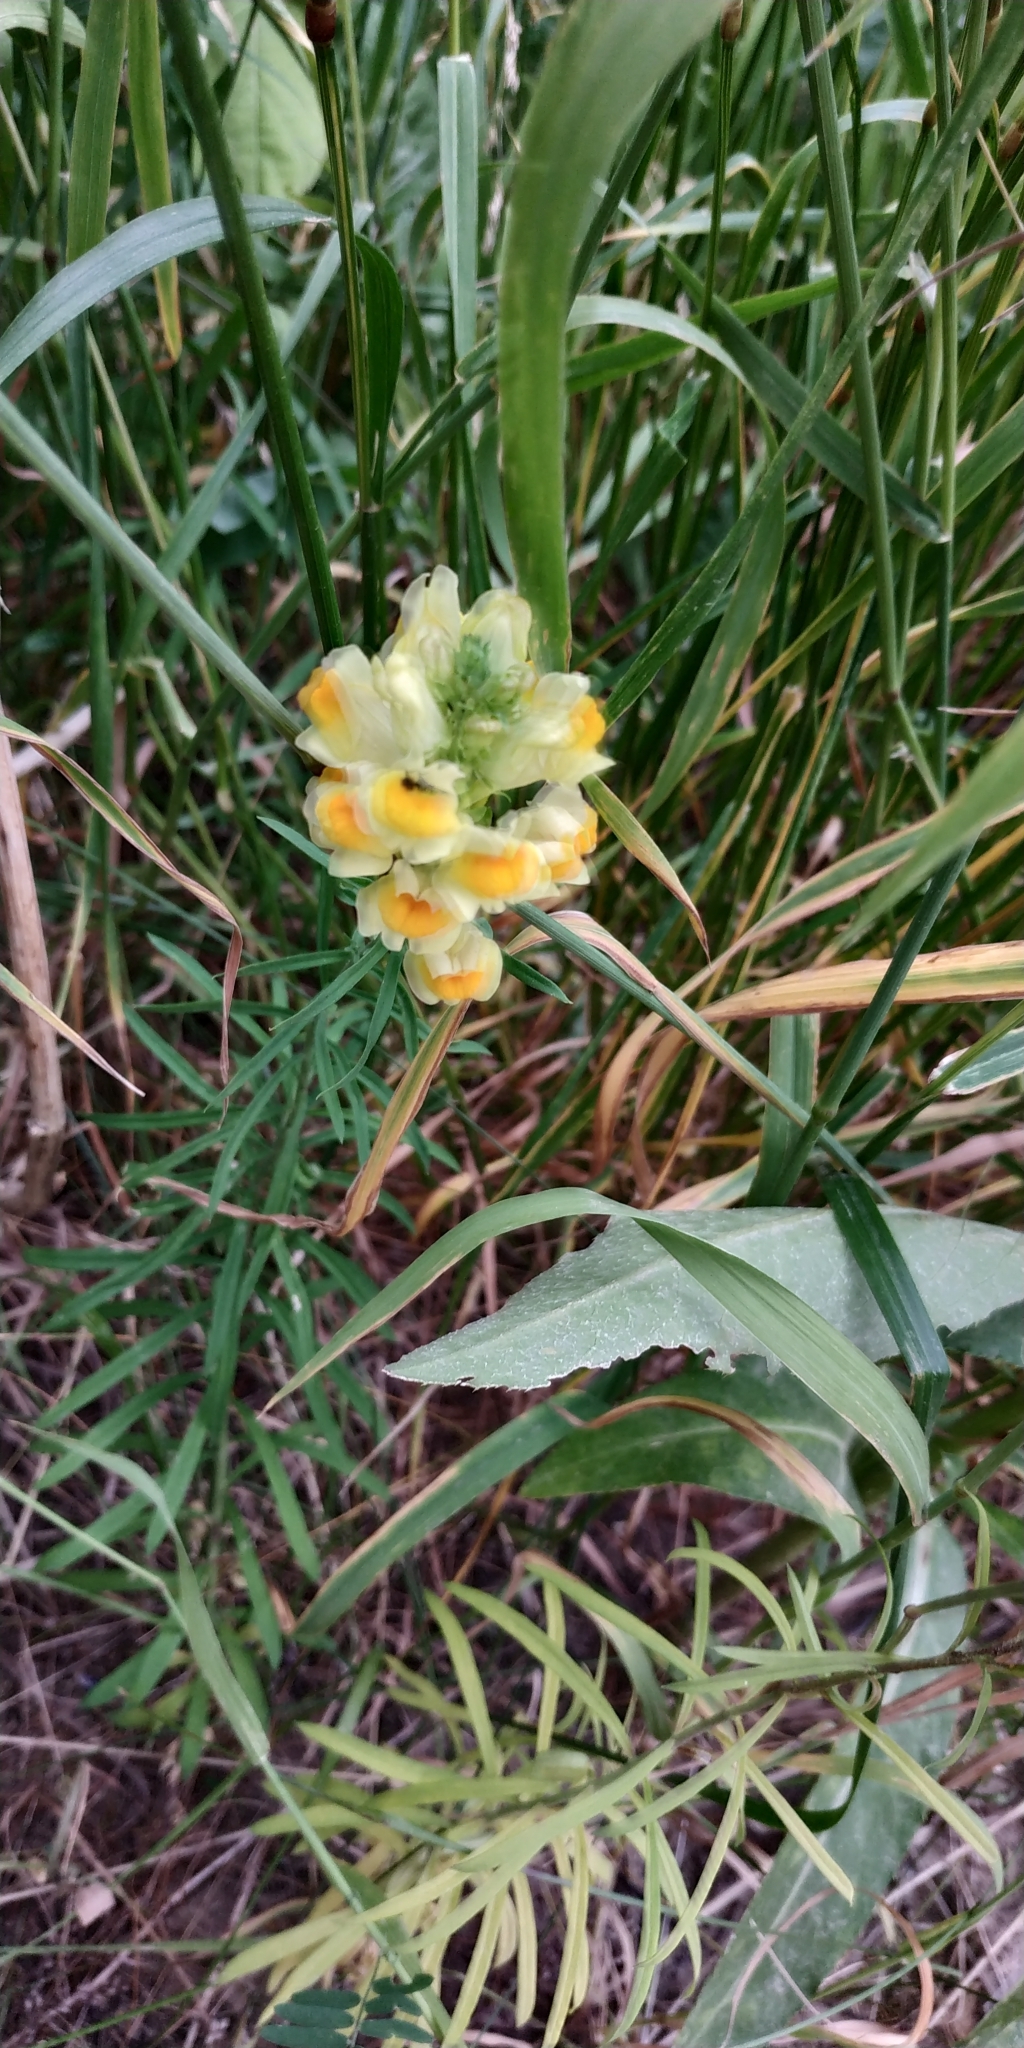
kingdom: Plantae
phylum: Tracheophyta
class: Magnoliopsida
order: Lamiales
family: Plantaginaceae
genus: Linaria
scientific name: Linaria vulgaris
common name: Butter and eggs
